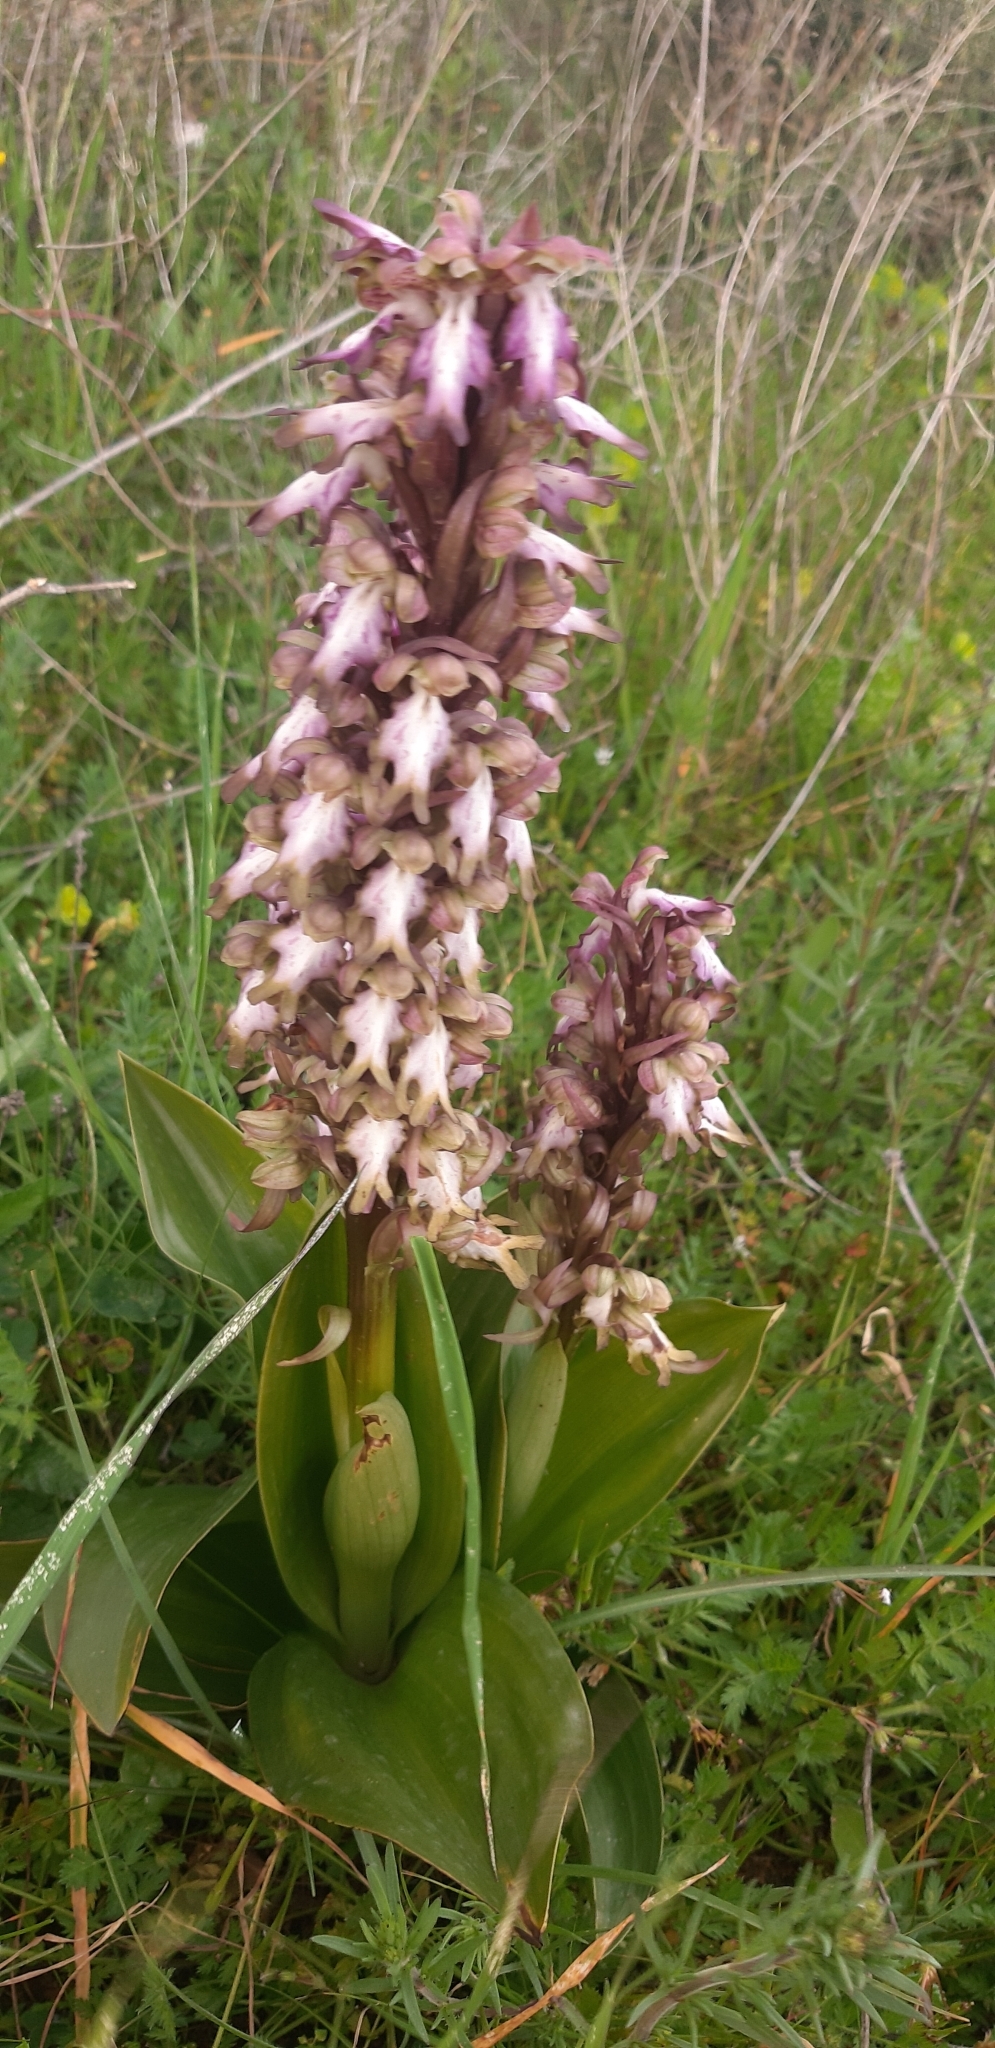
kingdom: Plantae
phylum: Tracheophyta
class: Liliopsida
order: Asparagales
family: Orchidaceae
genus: Himantoglossum
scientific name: Himantoglossum robertianum
